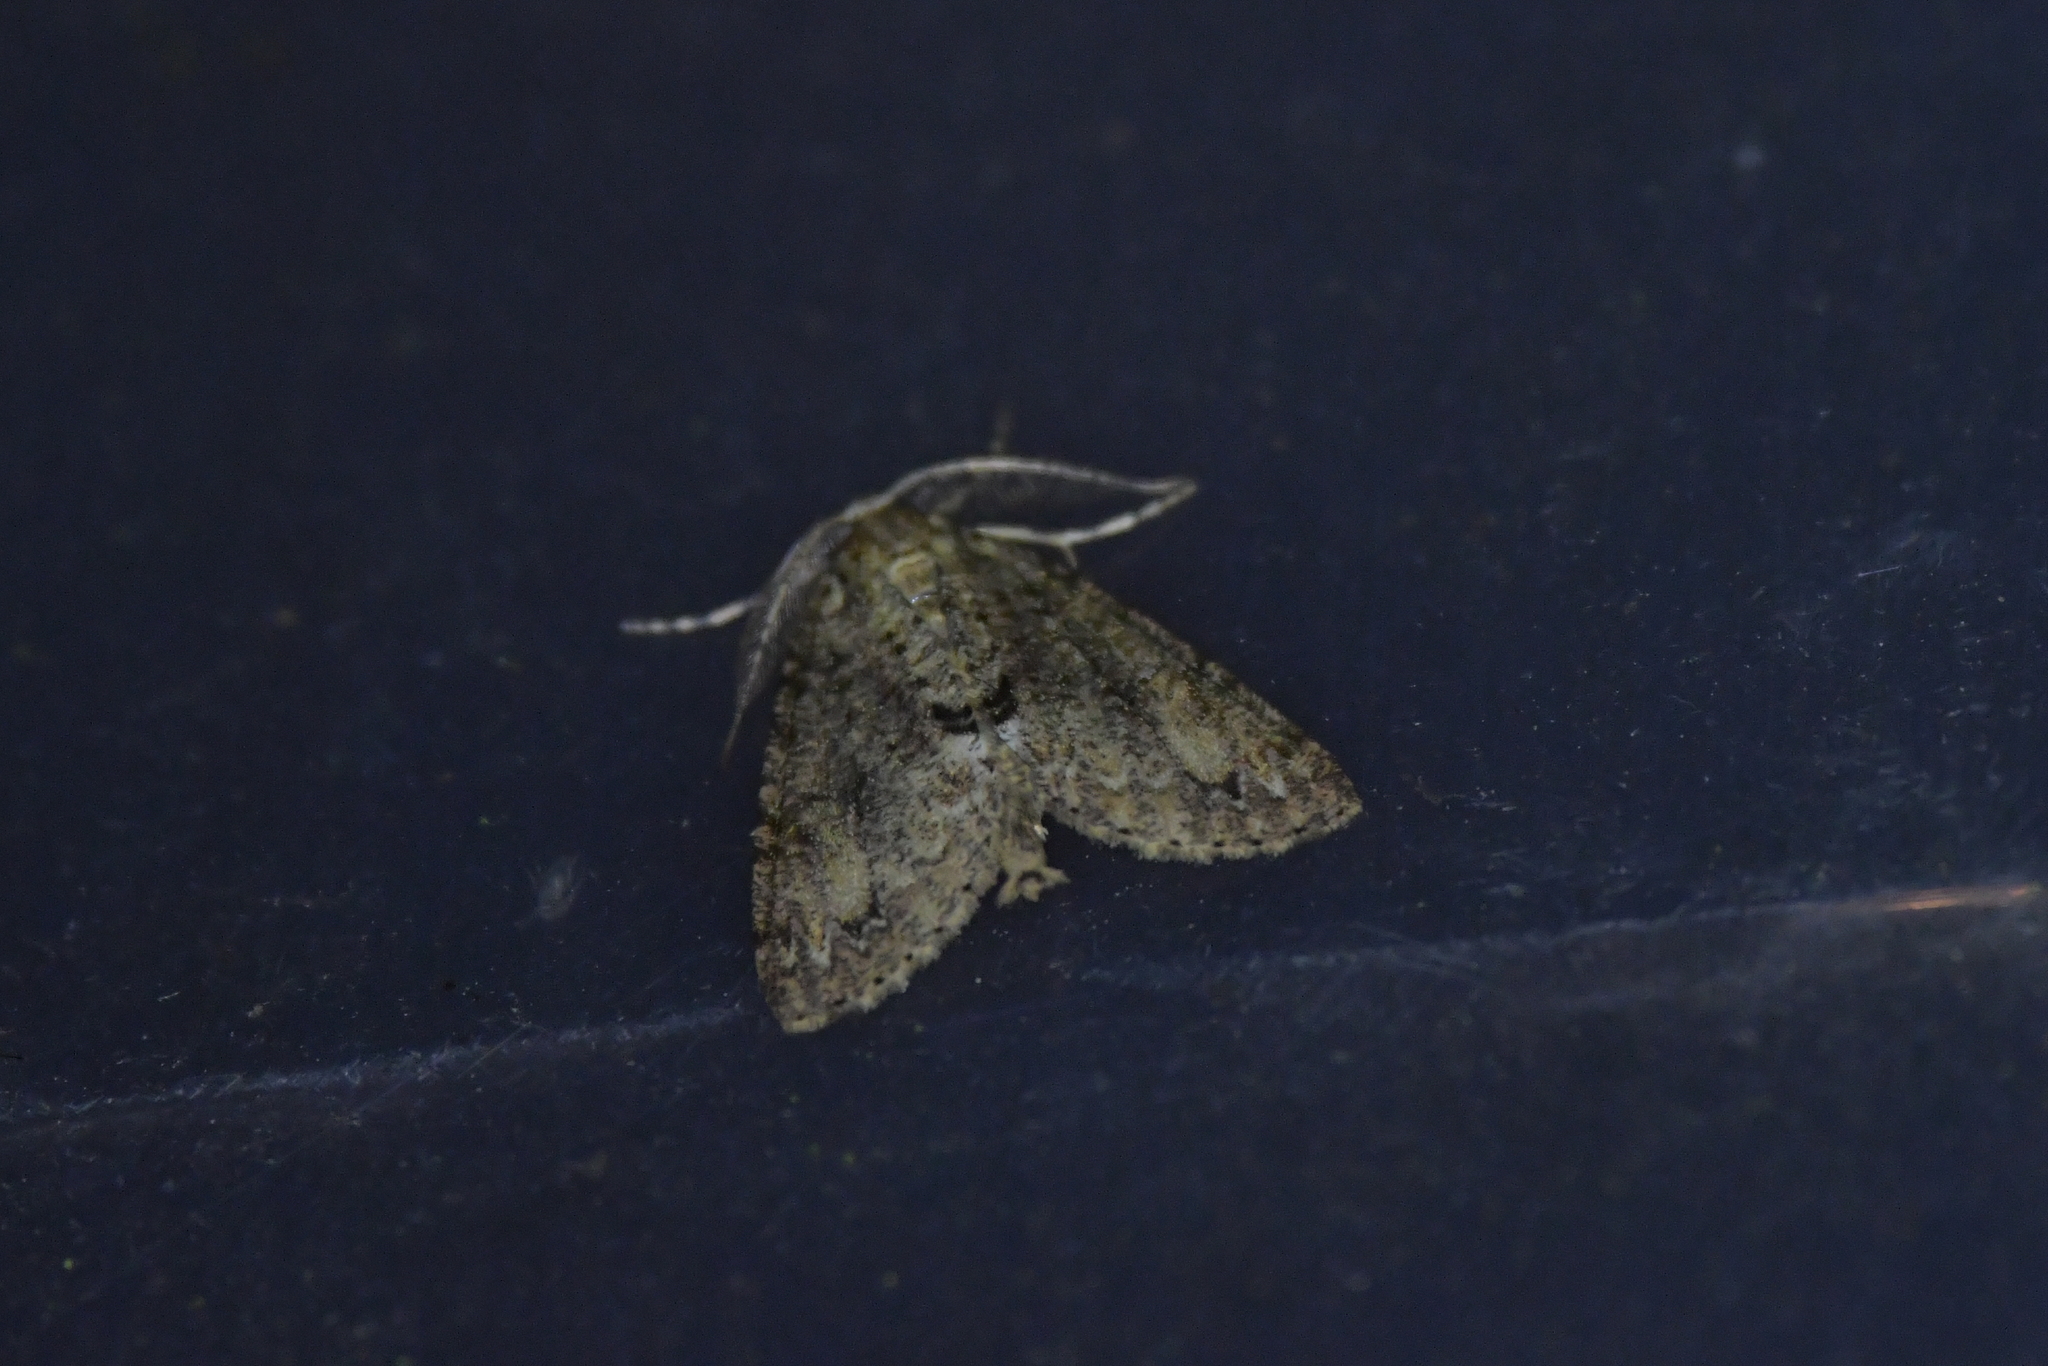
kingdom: Animalia
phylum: Arthropoda
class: Insecta
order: Lepidoptera
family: Geometridae
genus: Pseudocoremia
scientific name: Pseudocoremia suavis
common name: Common forest looper
